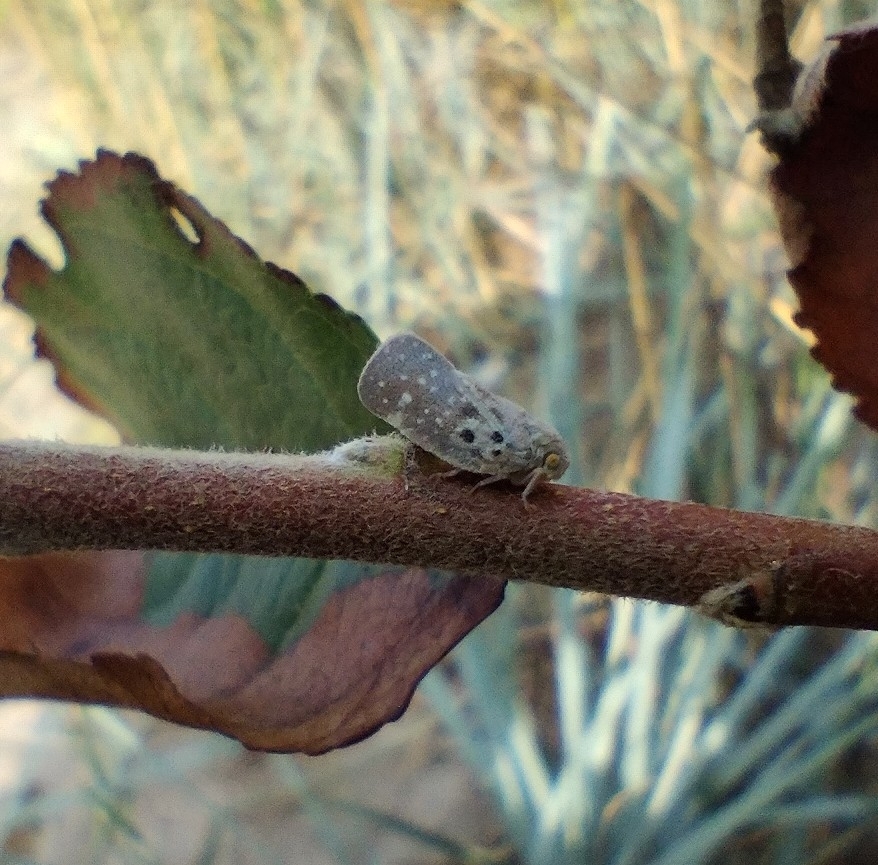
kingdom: Animalia
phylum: Arthropoda
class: Insecta
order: Hemiptera
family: Flatidae
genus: Metcalfa
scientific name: Metcalfa pruinosa
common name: Citrus flatid planthopper
